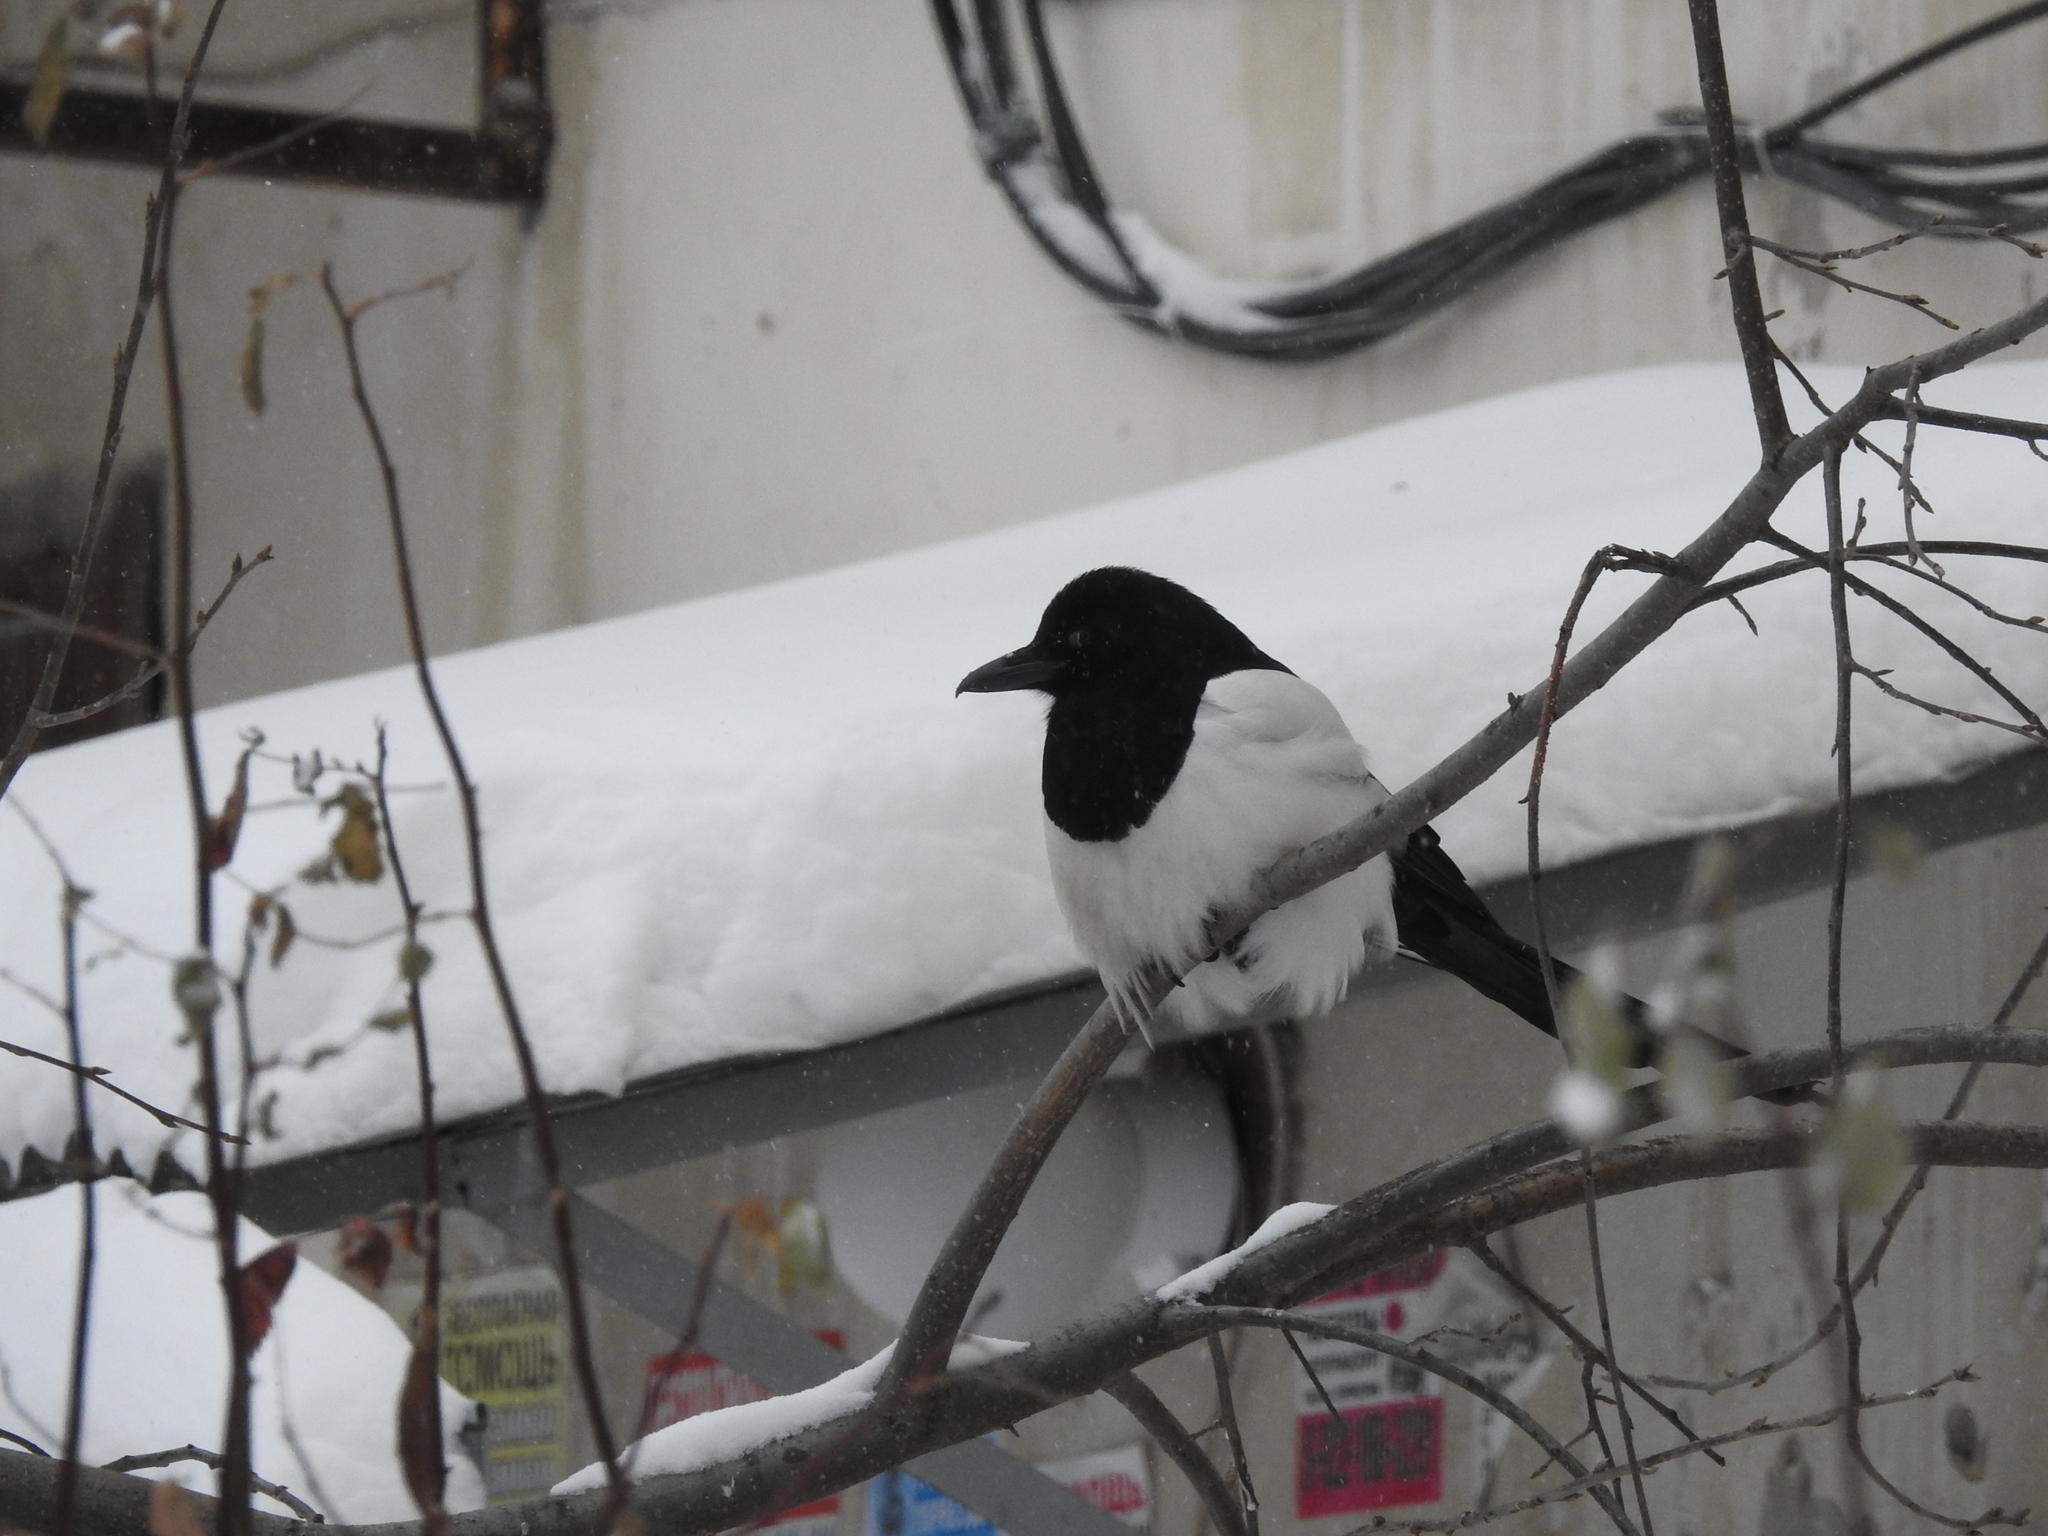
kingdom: Animalia
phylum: Chordata
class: Aves
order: Passeriformes
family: Corvidae
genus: Pica
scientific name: Pica pica
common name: Eurasian magpie
